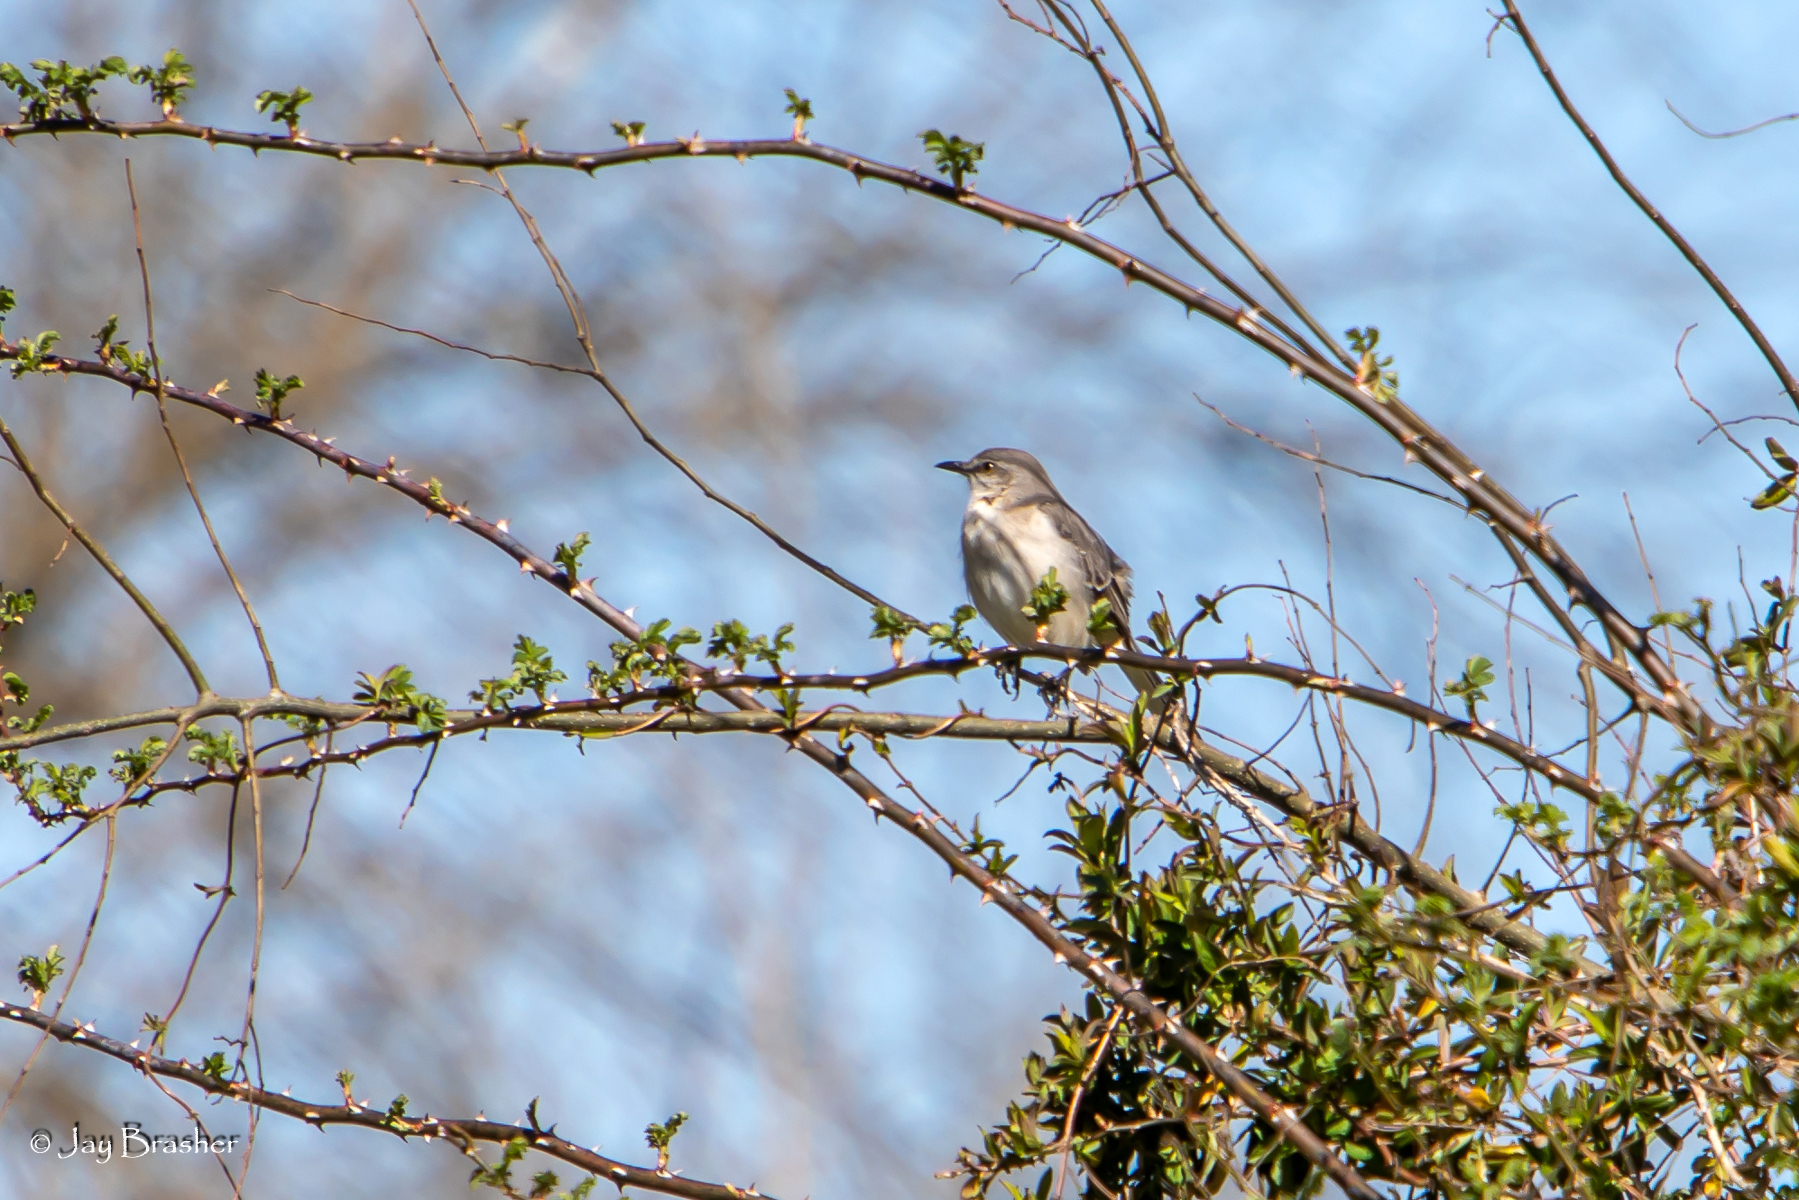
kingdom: Animalia
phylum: Chordata
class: Aves
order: Passeriformes
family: Mimidae
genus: Mimus
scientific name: Mimus polyglottos
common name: Northern mockingbird
